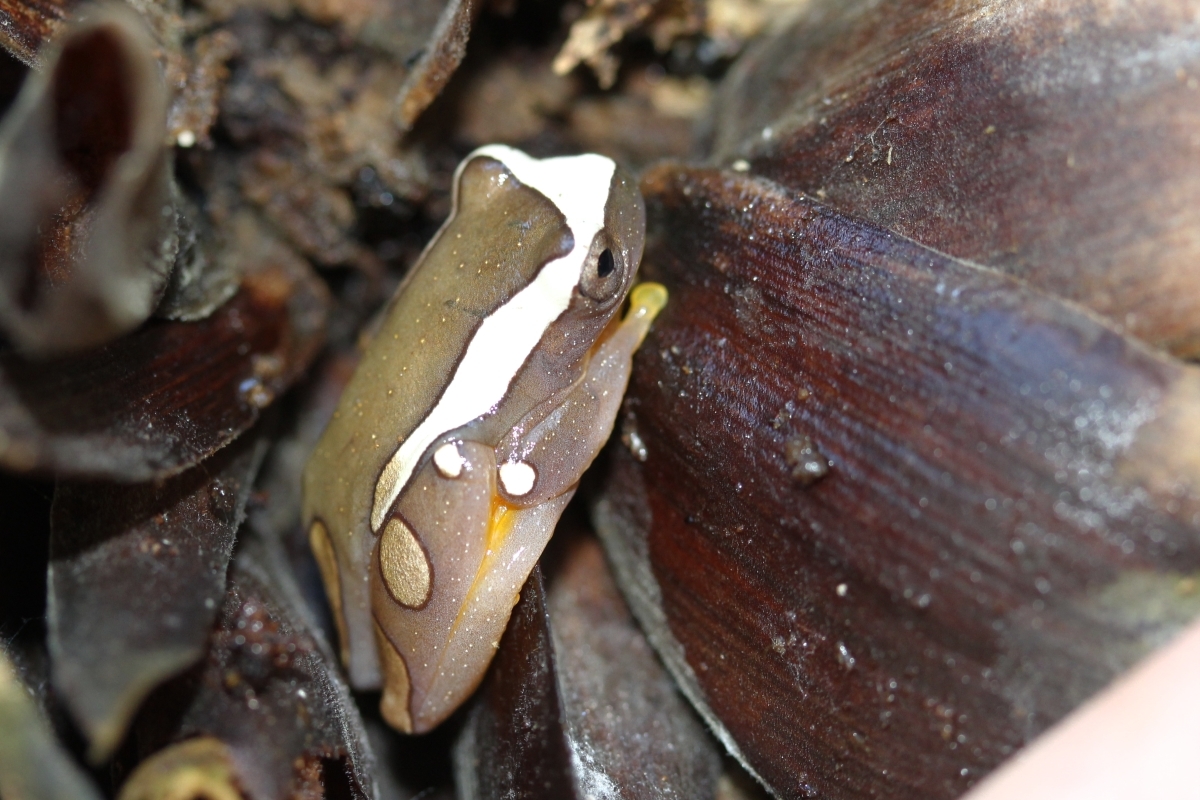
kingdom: Animalia
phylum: Chordata
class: Amphibia
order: Anura
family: Hylidae
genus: Dendropsophus
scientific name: Dendropsophus leucophyllatus
